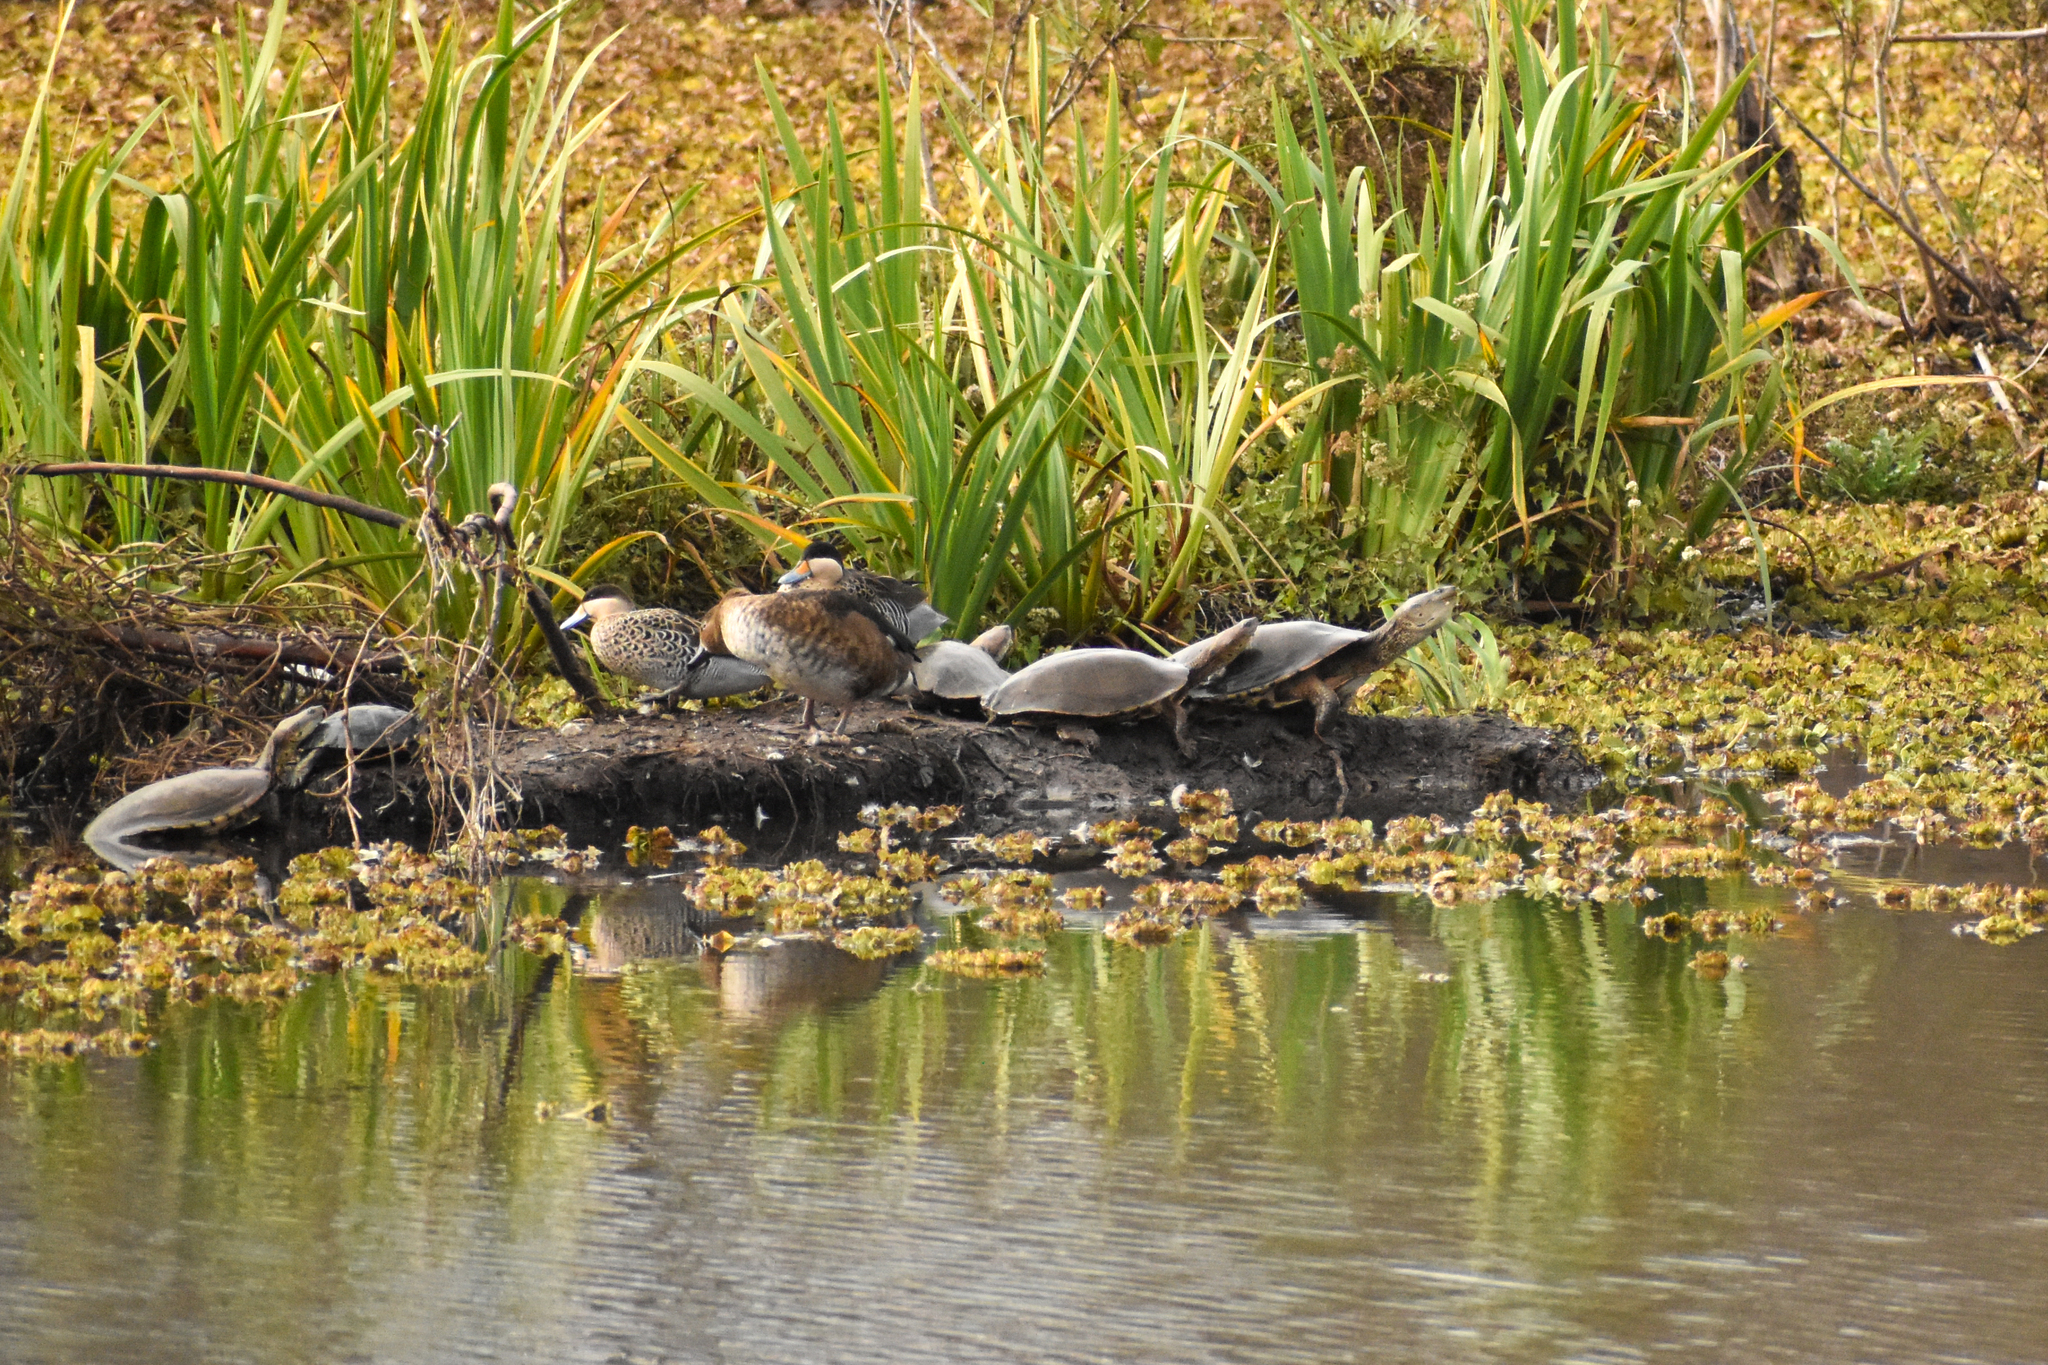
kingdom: Animalia
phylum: Chordata
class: Testudines
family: Chelidae
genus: Phrynops
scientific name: Phrynops hilarii
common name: Side-necked turtle of saint hillaire
